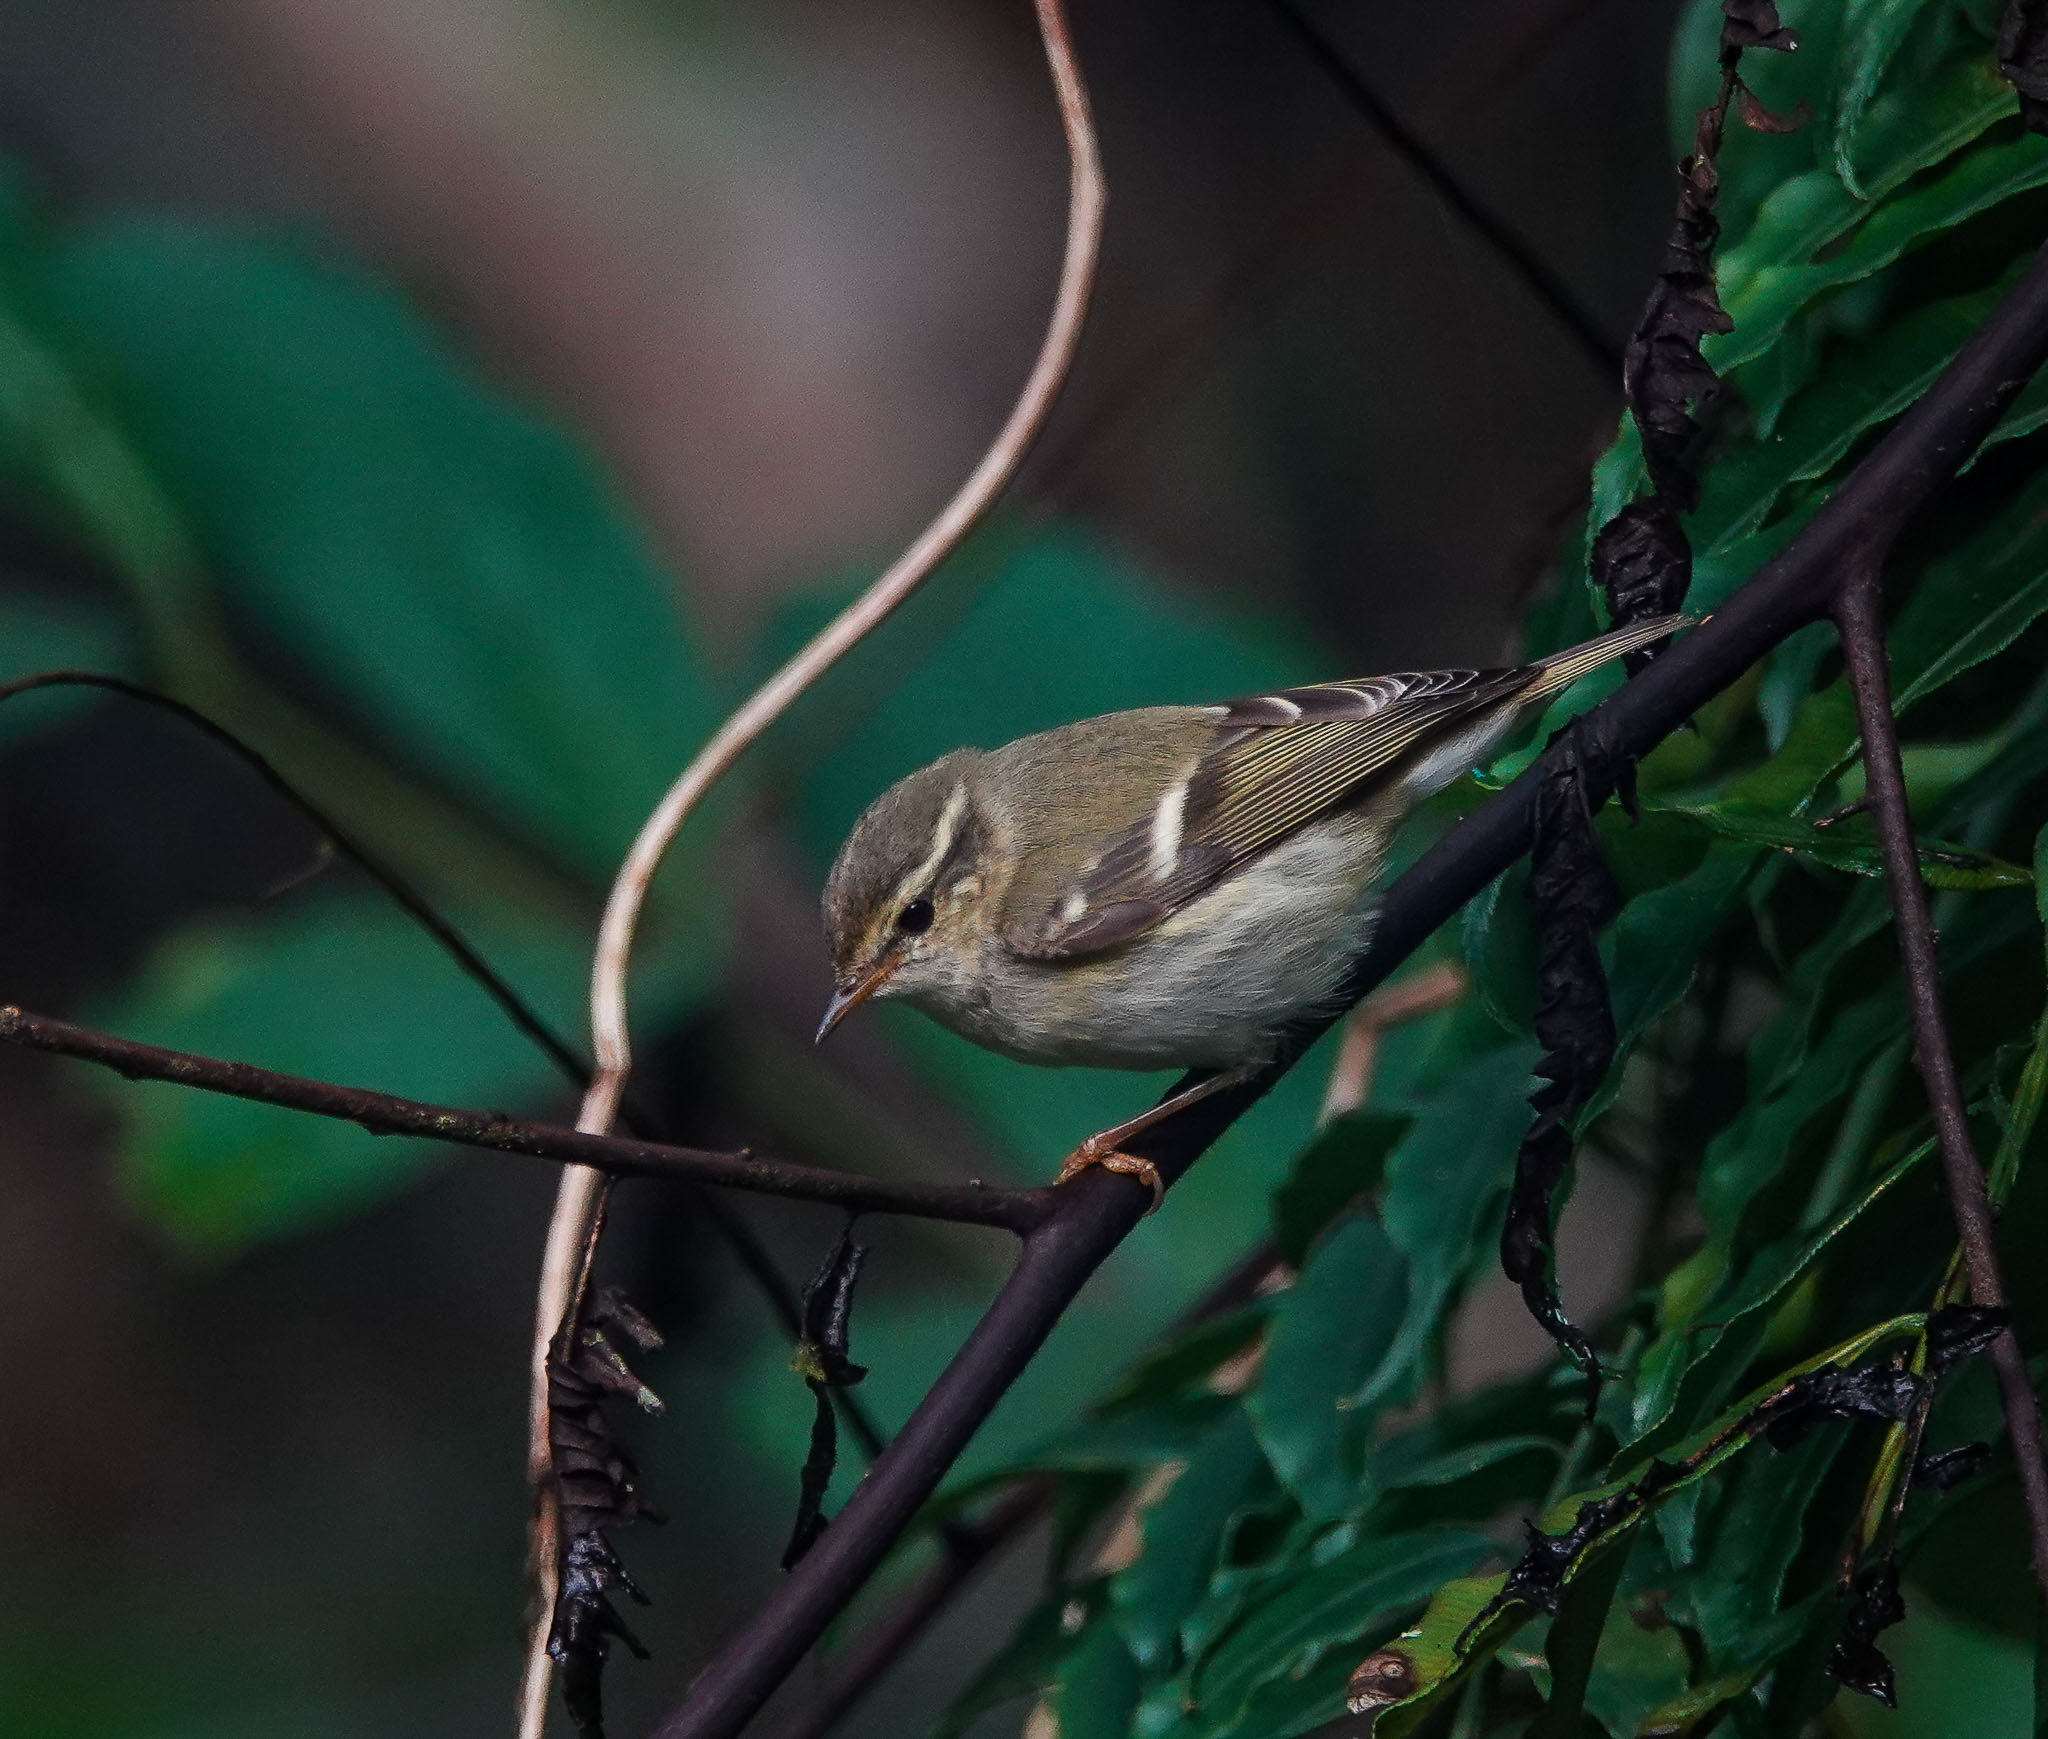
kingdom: Animalia
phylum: Chordata
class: Aves
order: Passeriformes
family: Phylloscopidae
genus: Phylloscopus
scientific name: Phylloscopus inornatus
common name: Yellow-browed warbler
